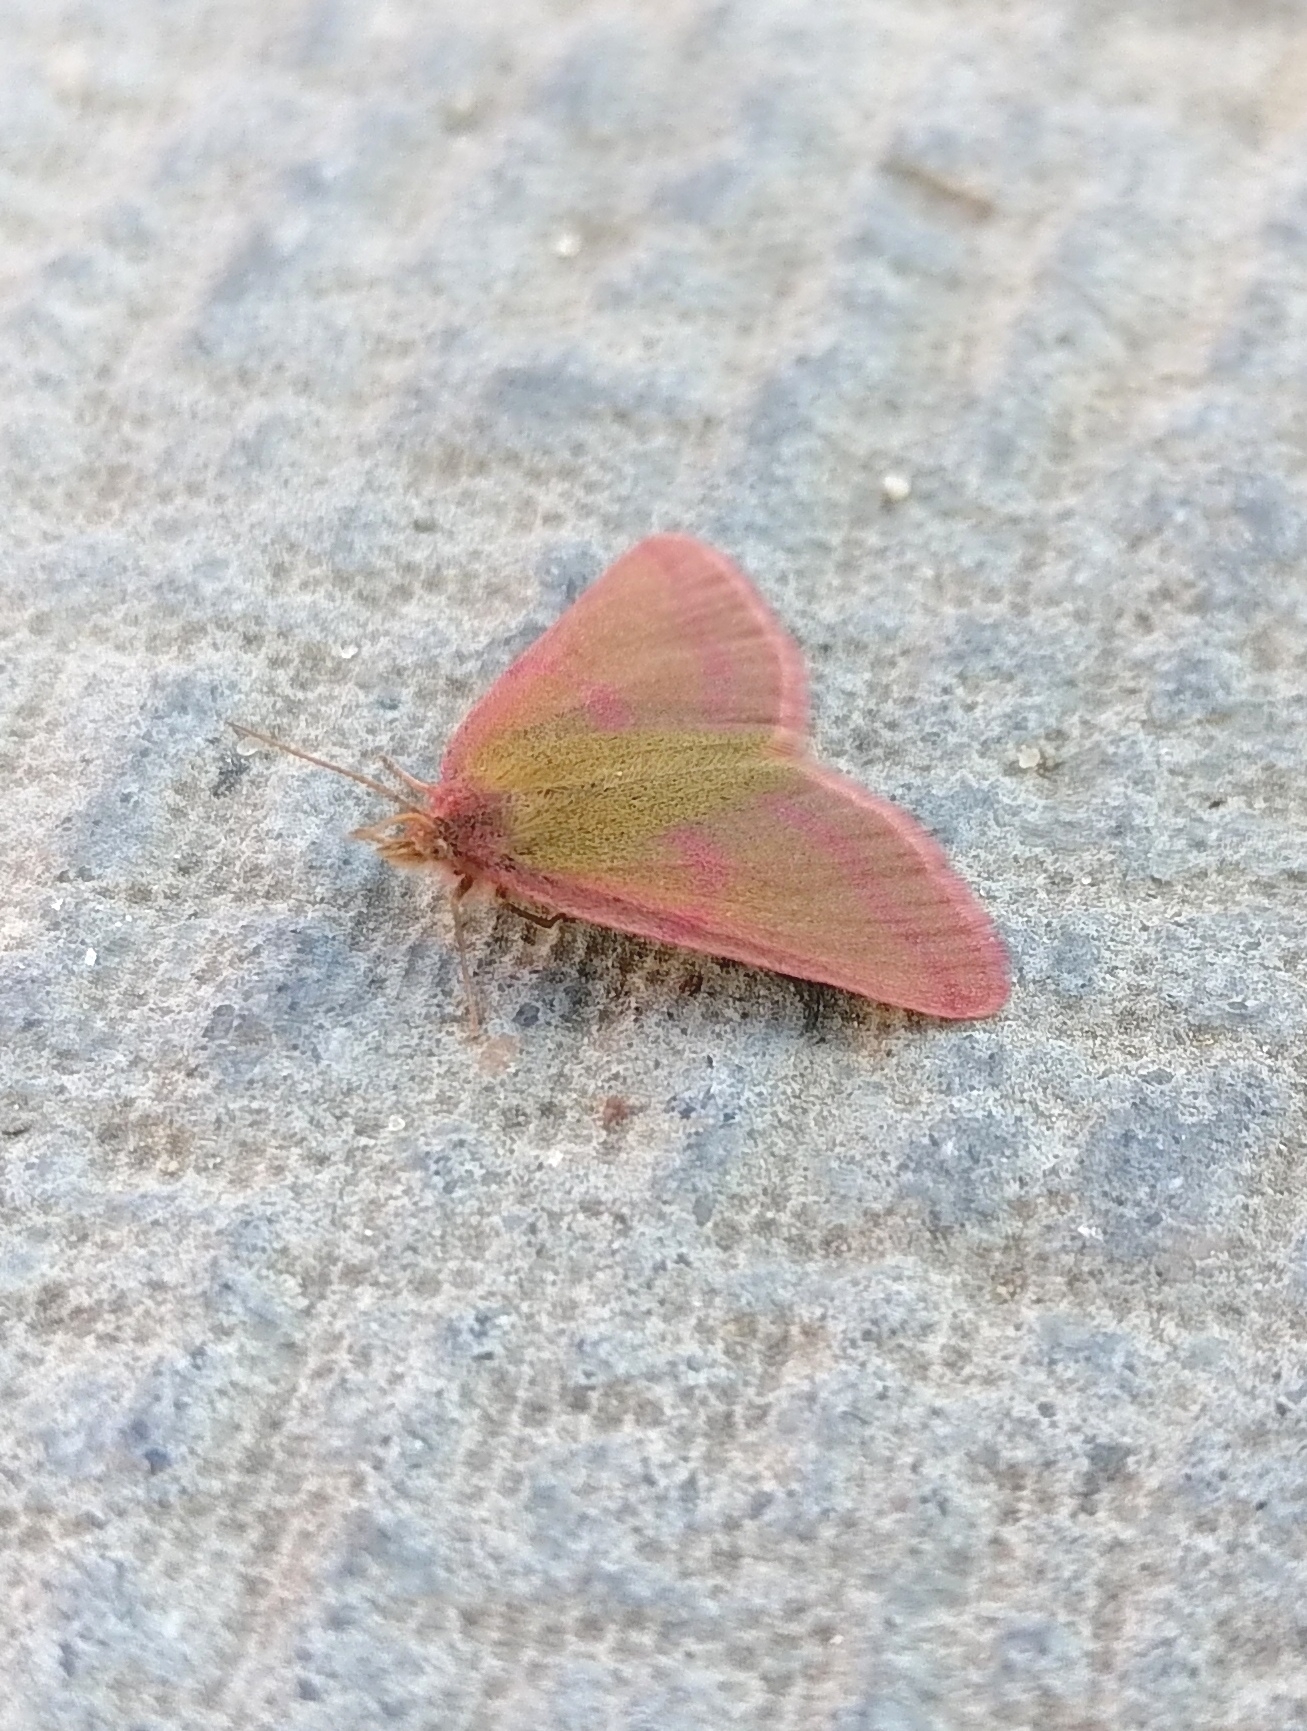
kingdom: Animalia
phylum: Arthropoda
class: Insecta
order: Lepidoptera
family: Geometridae
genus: Lythria
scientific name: Lythria purpuraria
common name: Purple-barred yellow
